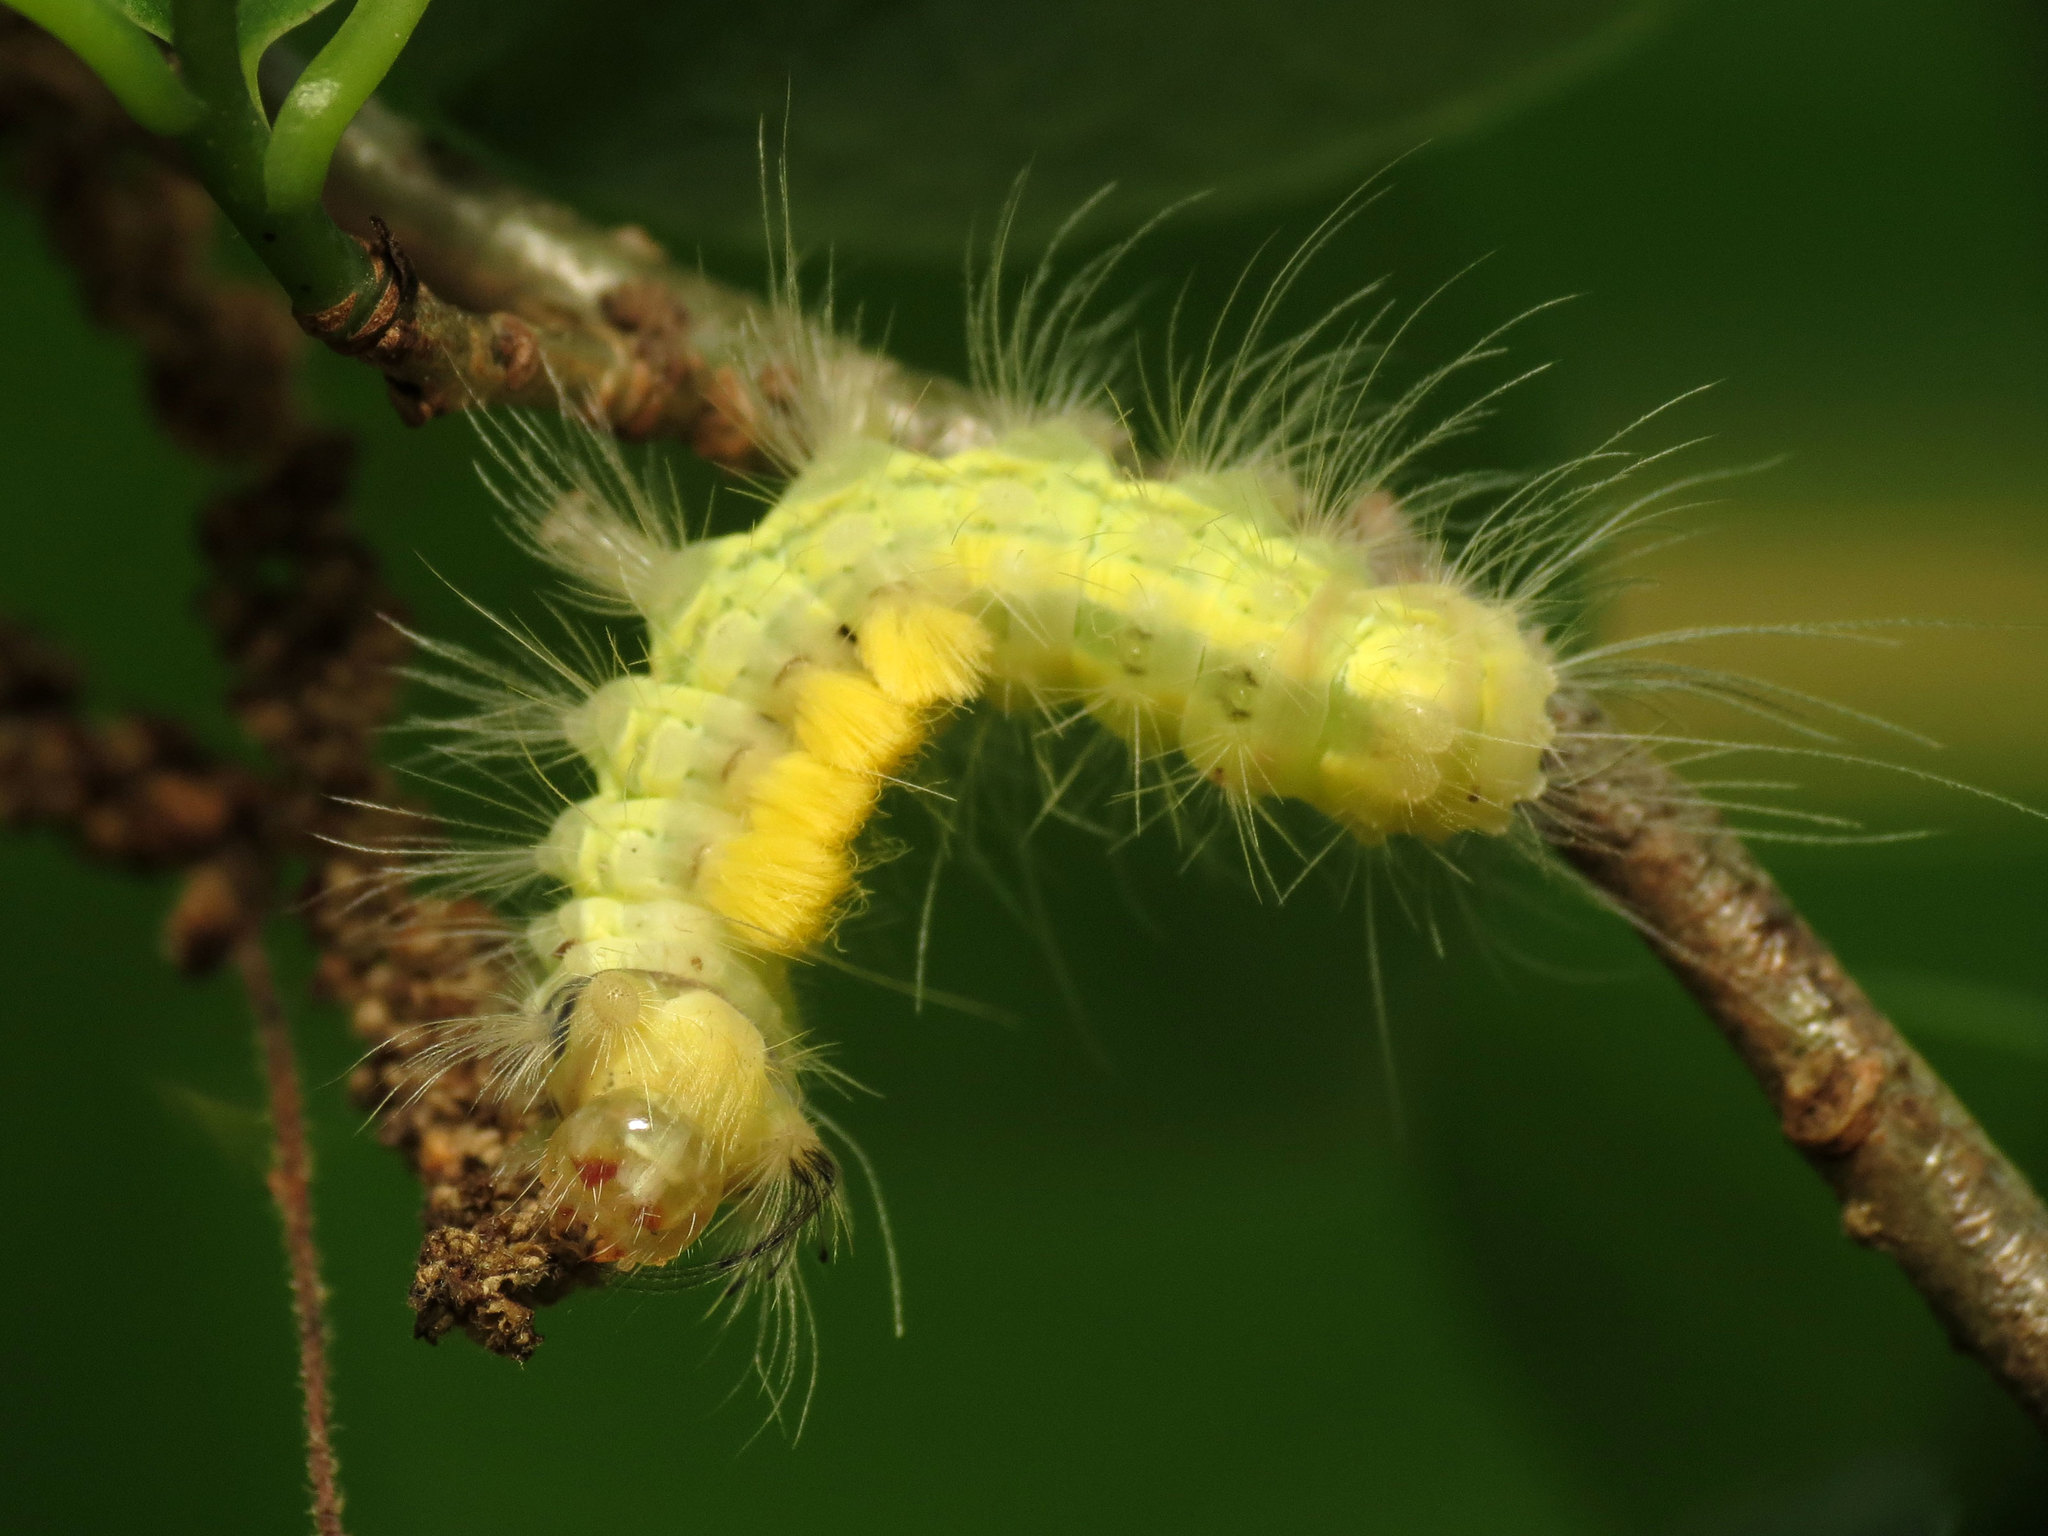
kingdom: Animalia
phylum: Arthropoda
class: Insecta
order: Lepidoptera
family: Erebidae
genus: Orgyia
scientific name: Orgyia definita
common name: Definite tussock moth
